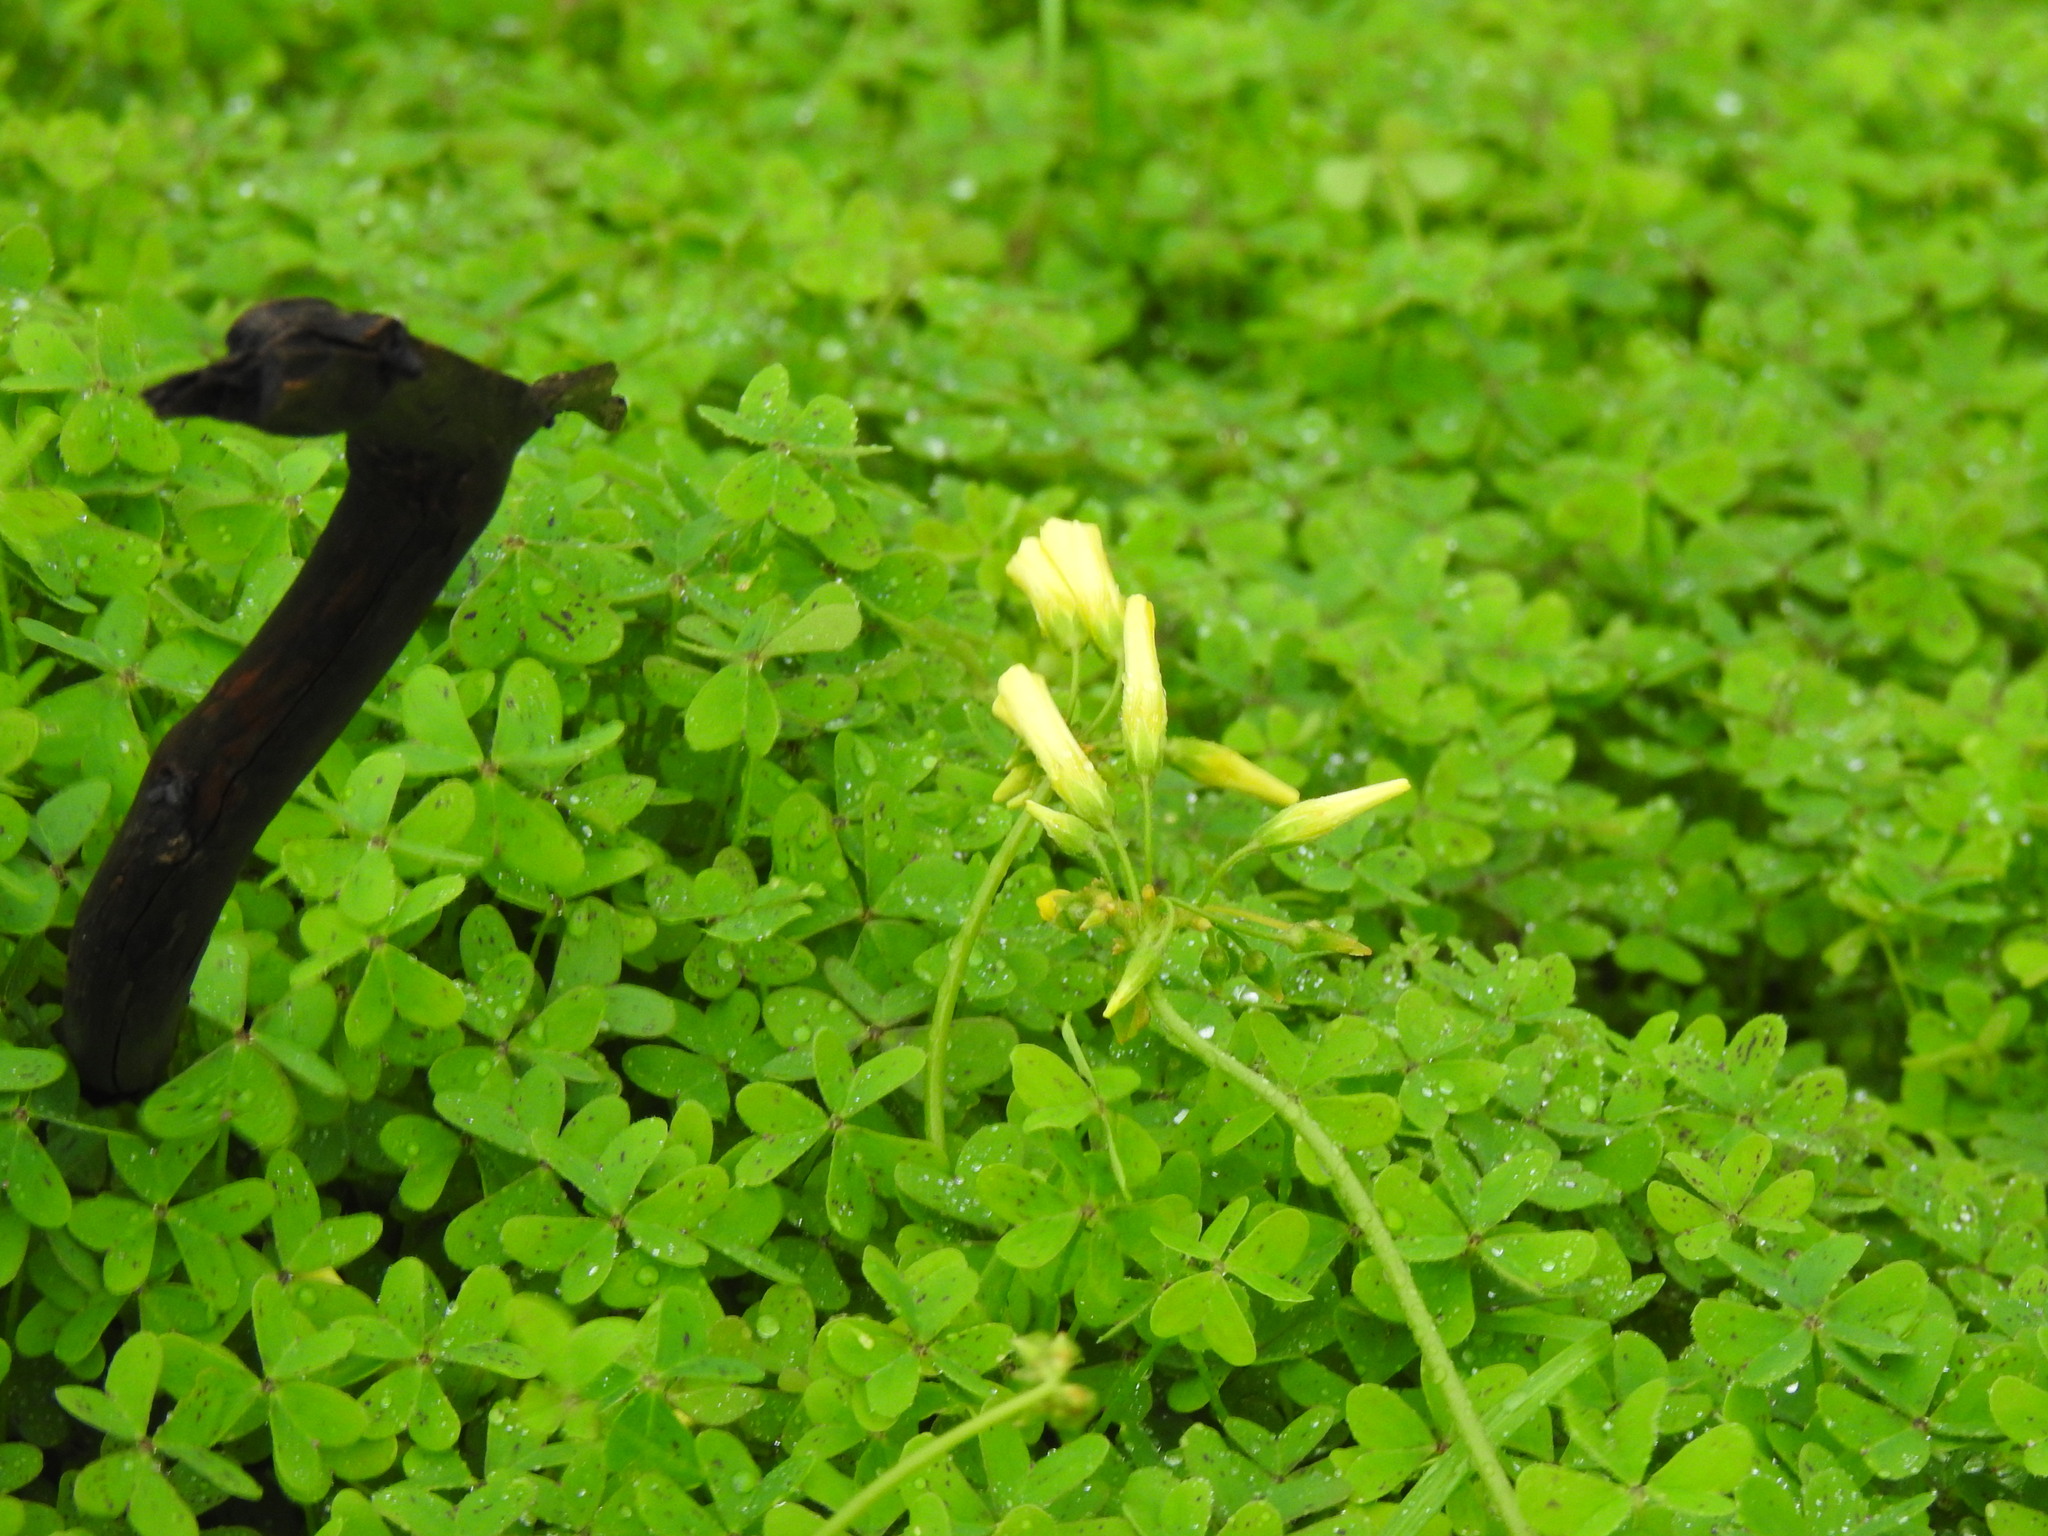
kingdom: Plantae
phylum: Tracheophyta
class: Magnoliopsida
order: Oxalidales
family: Oxalidaceae
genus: Oxalis
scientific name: Oxalis pes-caprae
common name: Bermuda-buttercup
